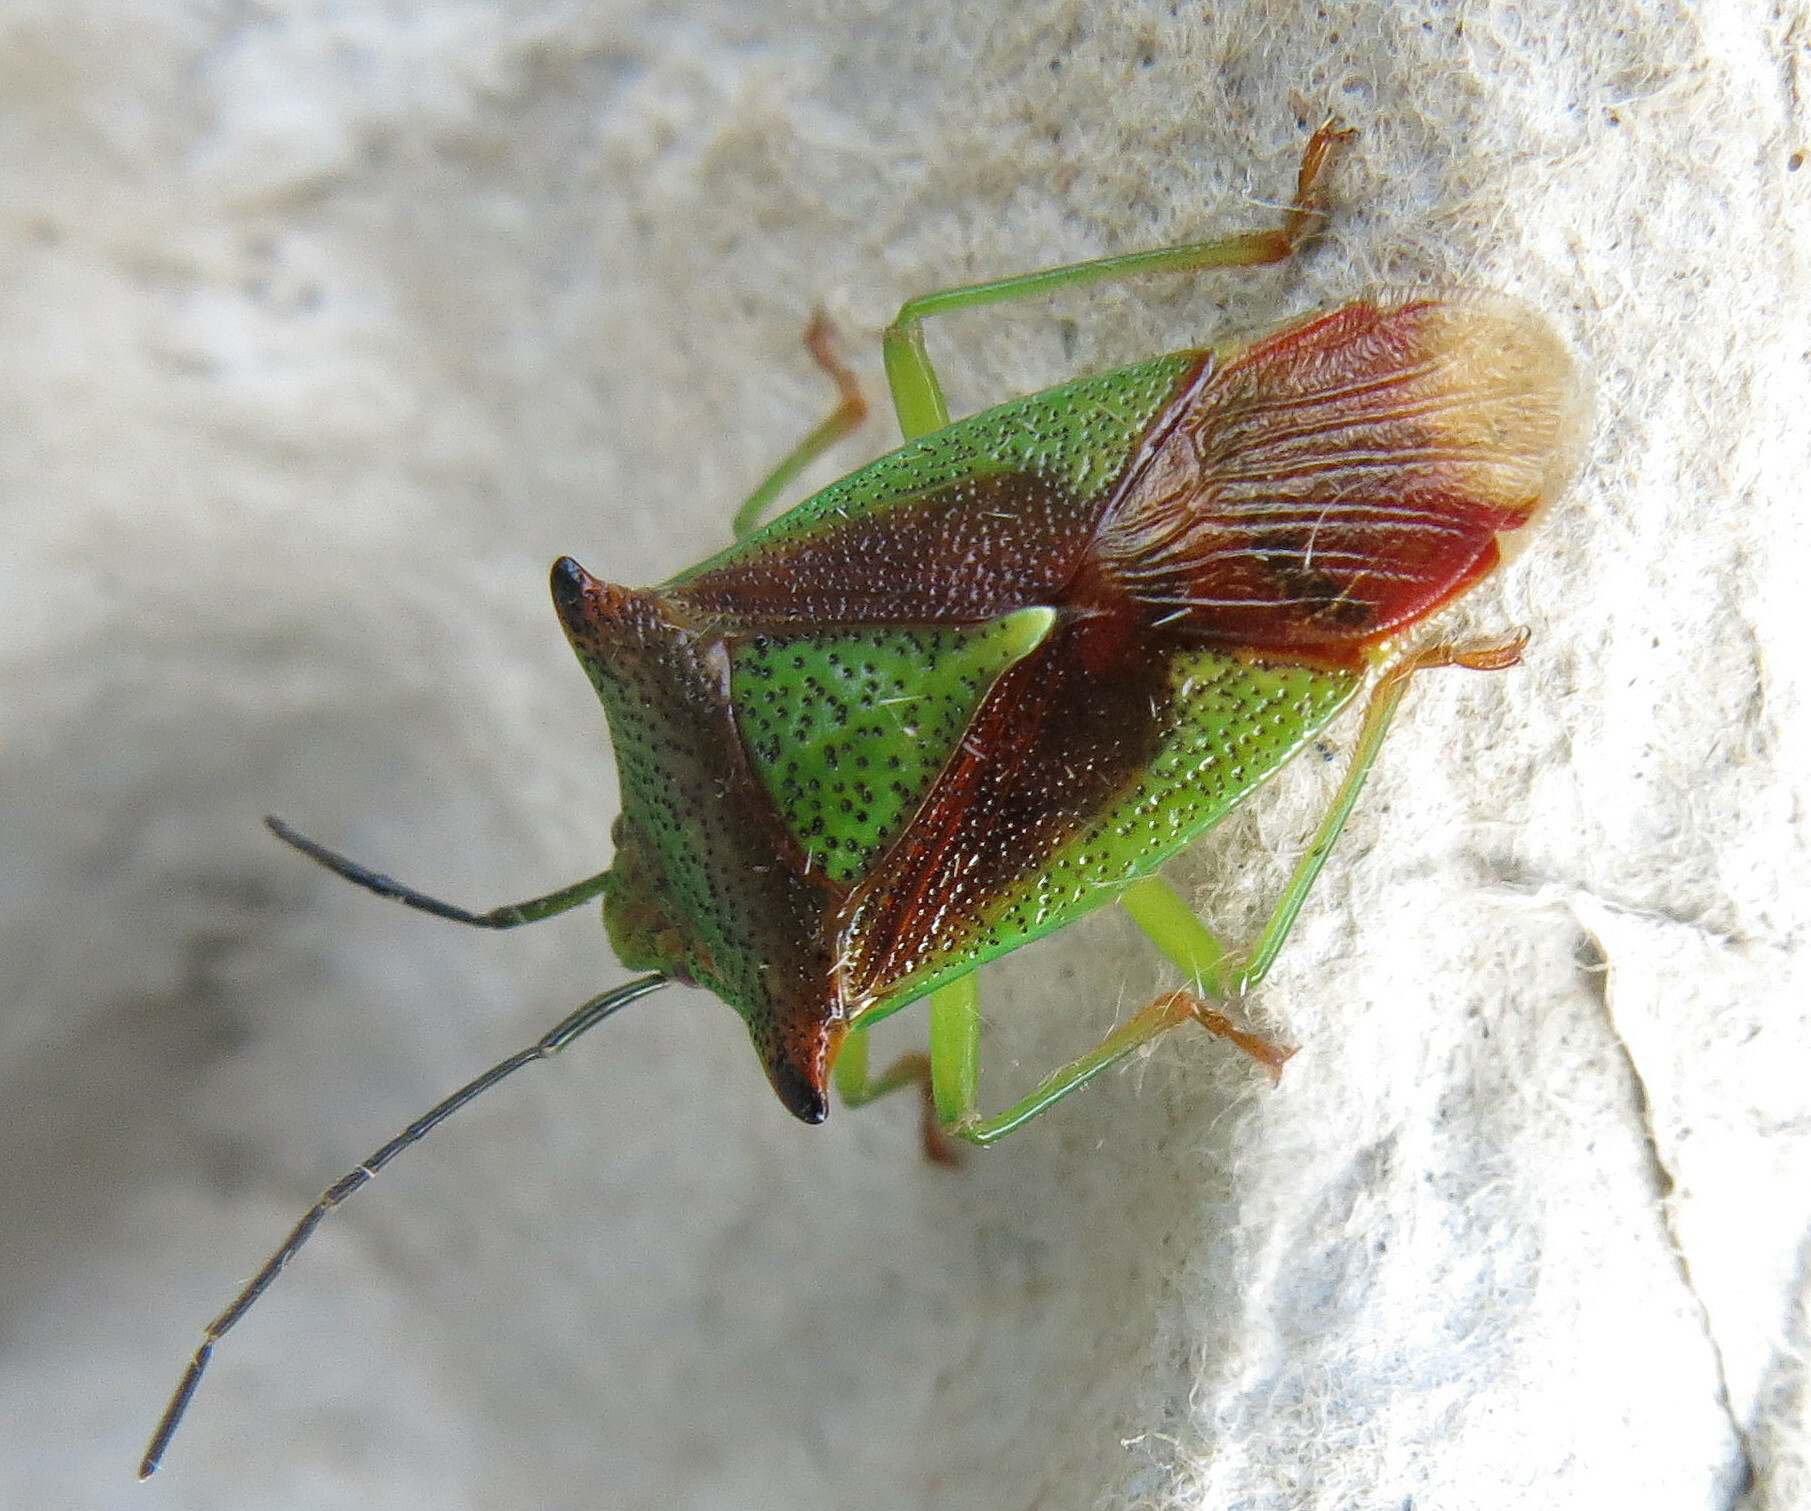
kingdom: Animalia
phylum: Arthropoda
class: Insecta
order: Hemiptera
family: Acanthosomatidae
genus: Acanthosoma
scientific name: Acanthosoma haemorrhoidale
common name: Hawthorn shieldbug
